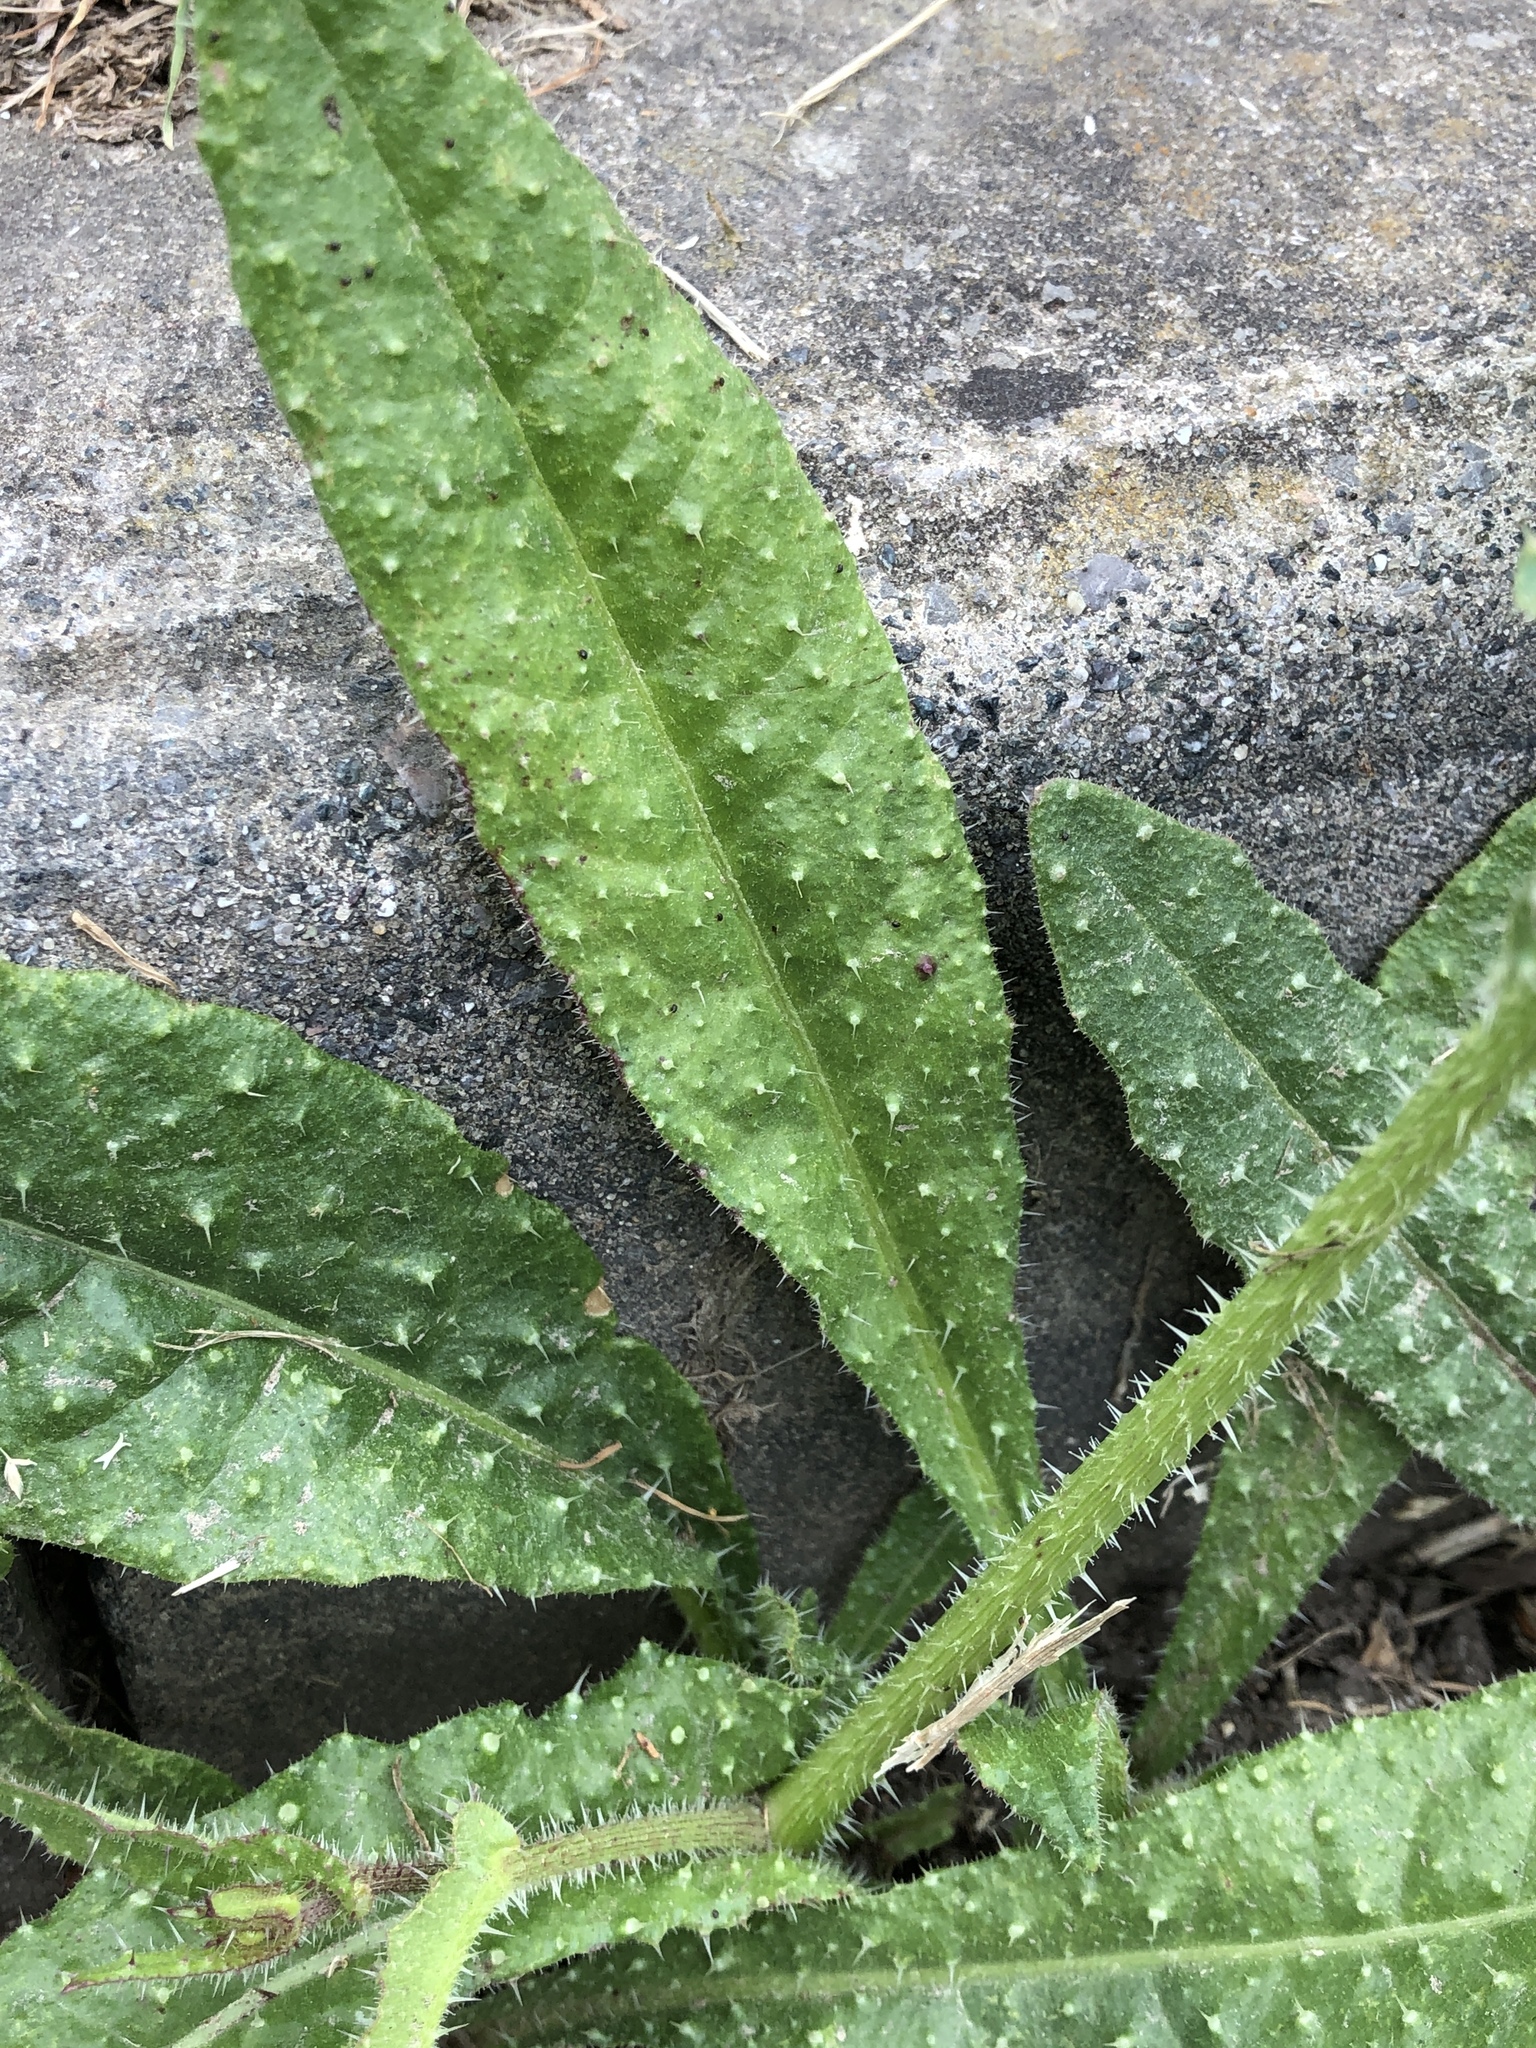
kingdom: Plantae
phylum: Tracheophyta
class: Magnoliopsida
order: Asterales
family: Asteraceae
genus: Helminthotheca
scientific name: Helminthotheca echioides
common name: Ox-tongue
